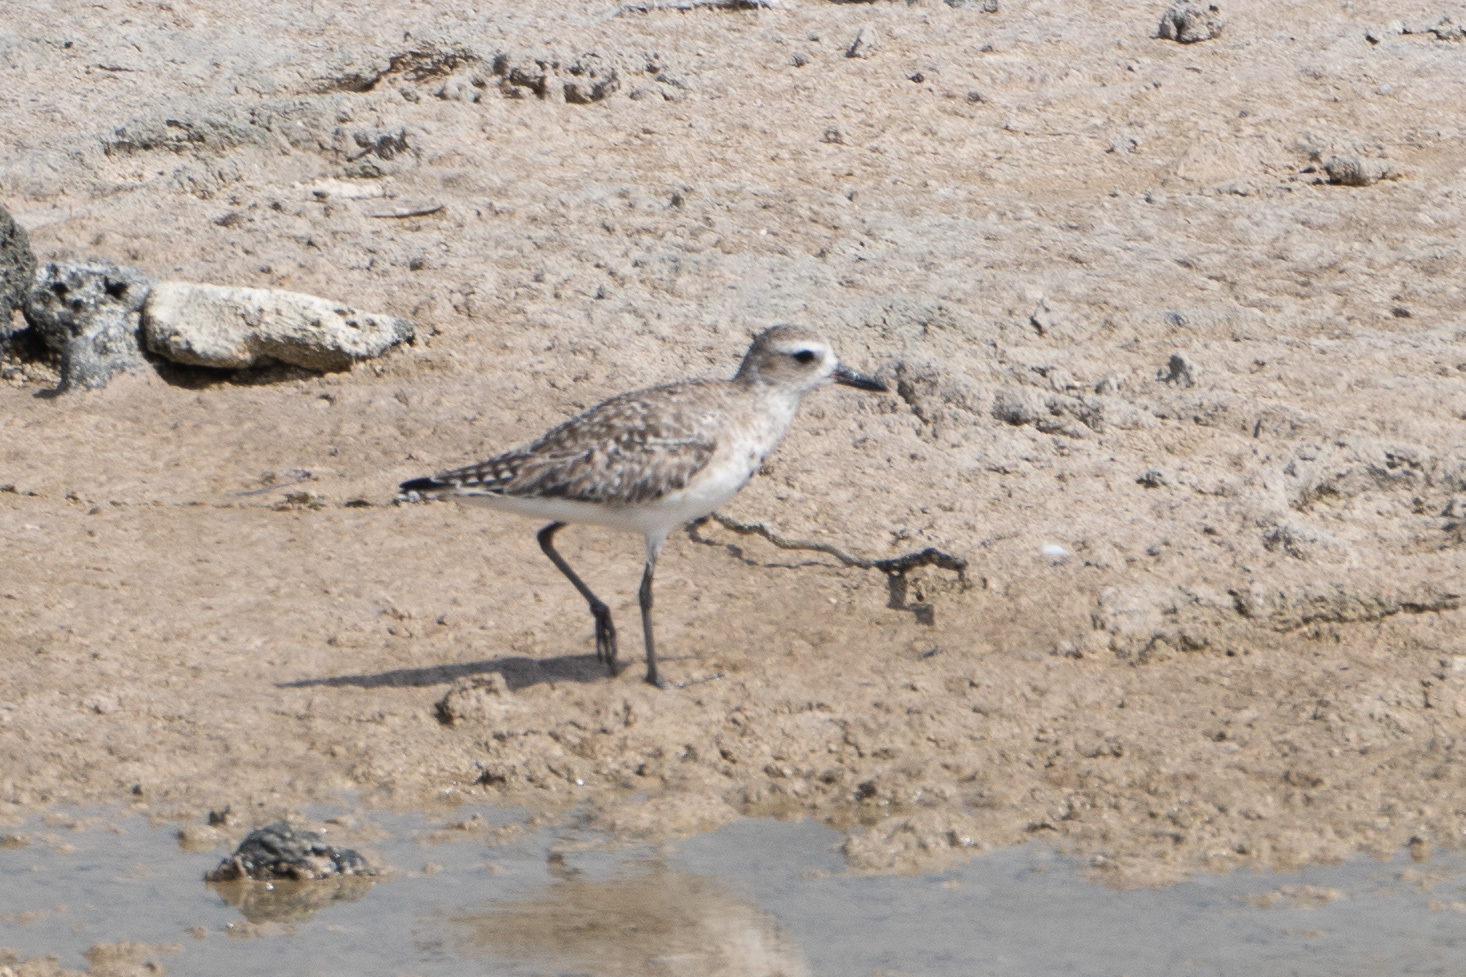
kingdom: Animalia
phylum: Chordata
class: Aves
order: Charadriiformes
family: Charadriidae
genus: Pluvialis
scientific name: Pluvialis squatarola
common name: Grey plover
